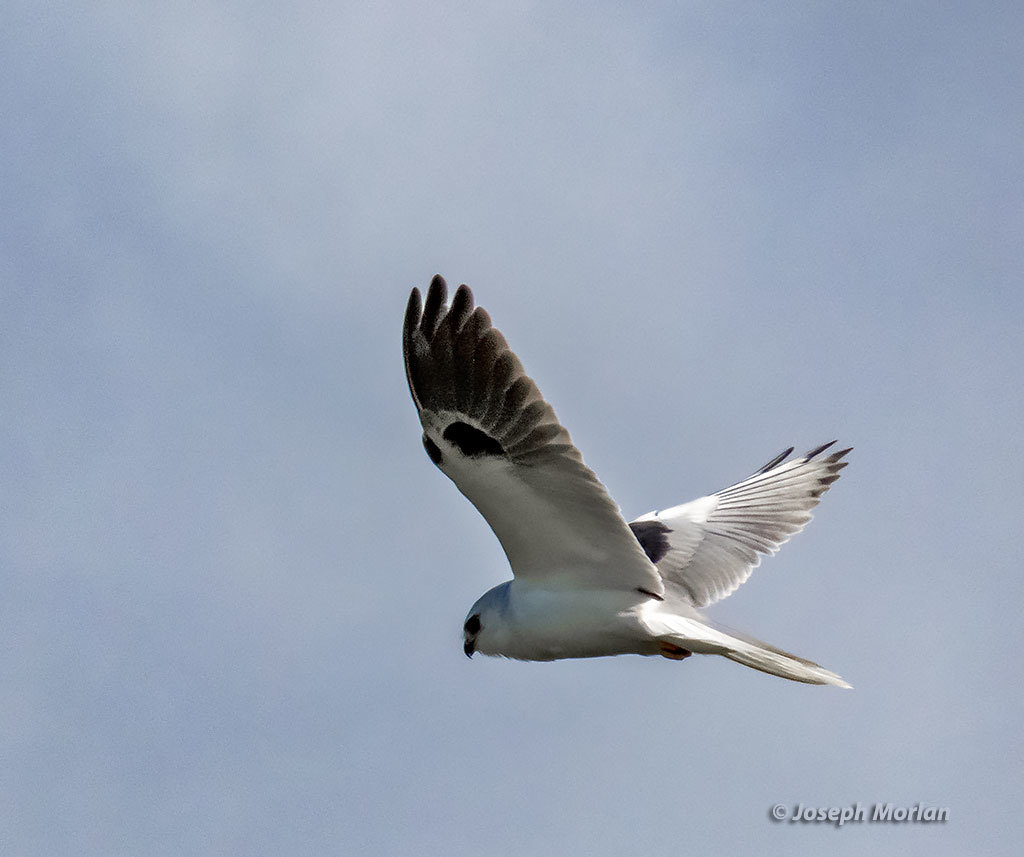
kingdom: Animalia
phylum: Chordata
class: Aves
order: Accipitriformes
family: Accipitridae
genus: Elanus
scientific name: Elanus leucurus
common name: White-tailed kite
